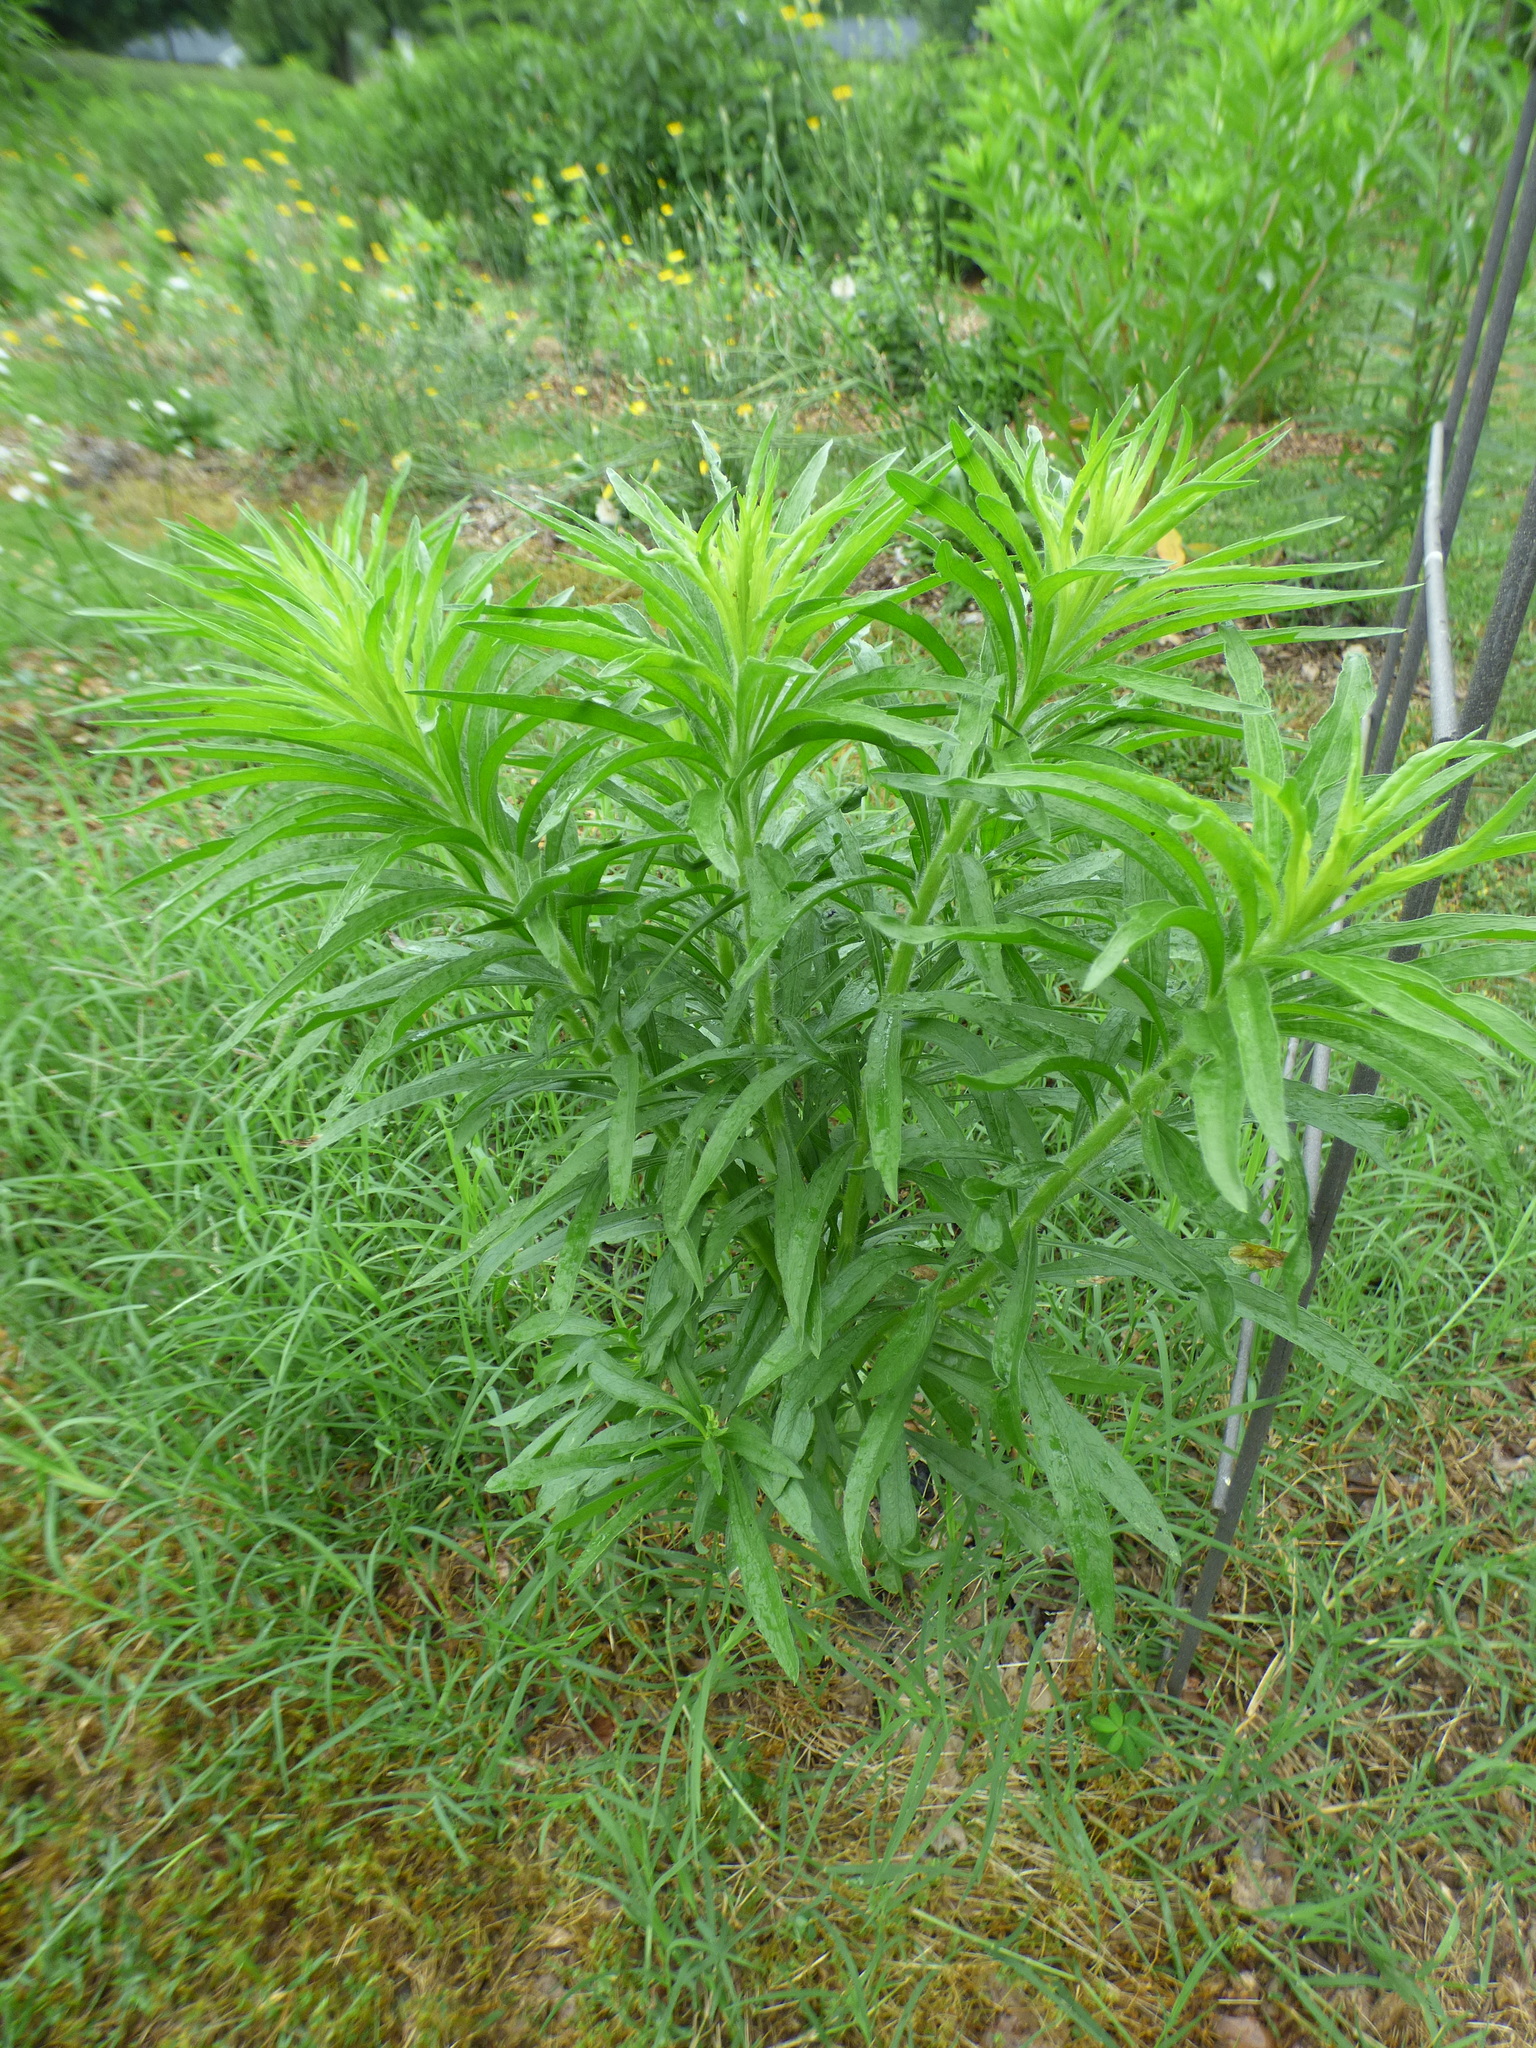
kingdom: Plantae
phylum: Tracheophyta
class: Magnoliopsida
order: Asterales
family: Asteraceae
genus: Erigeron
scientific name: Erigeron canadensis
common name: Canadian fleabane
